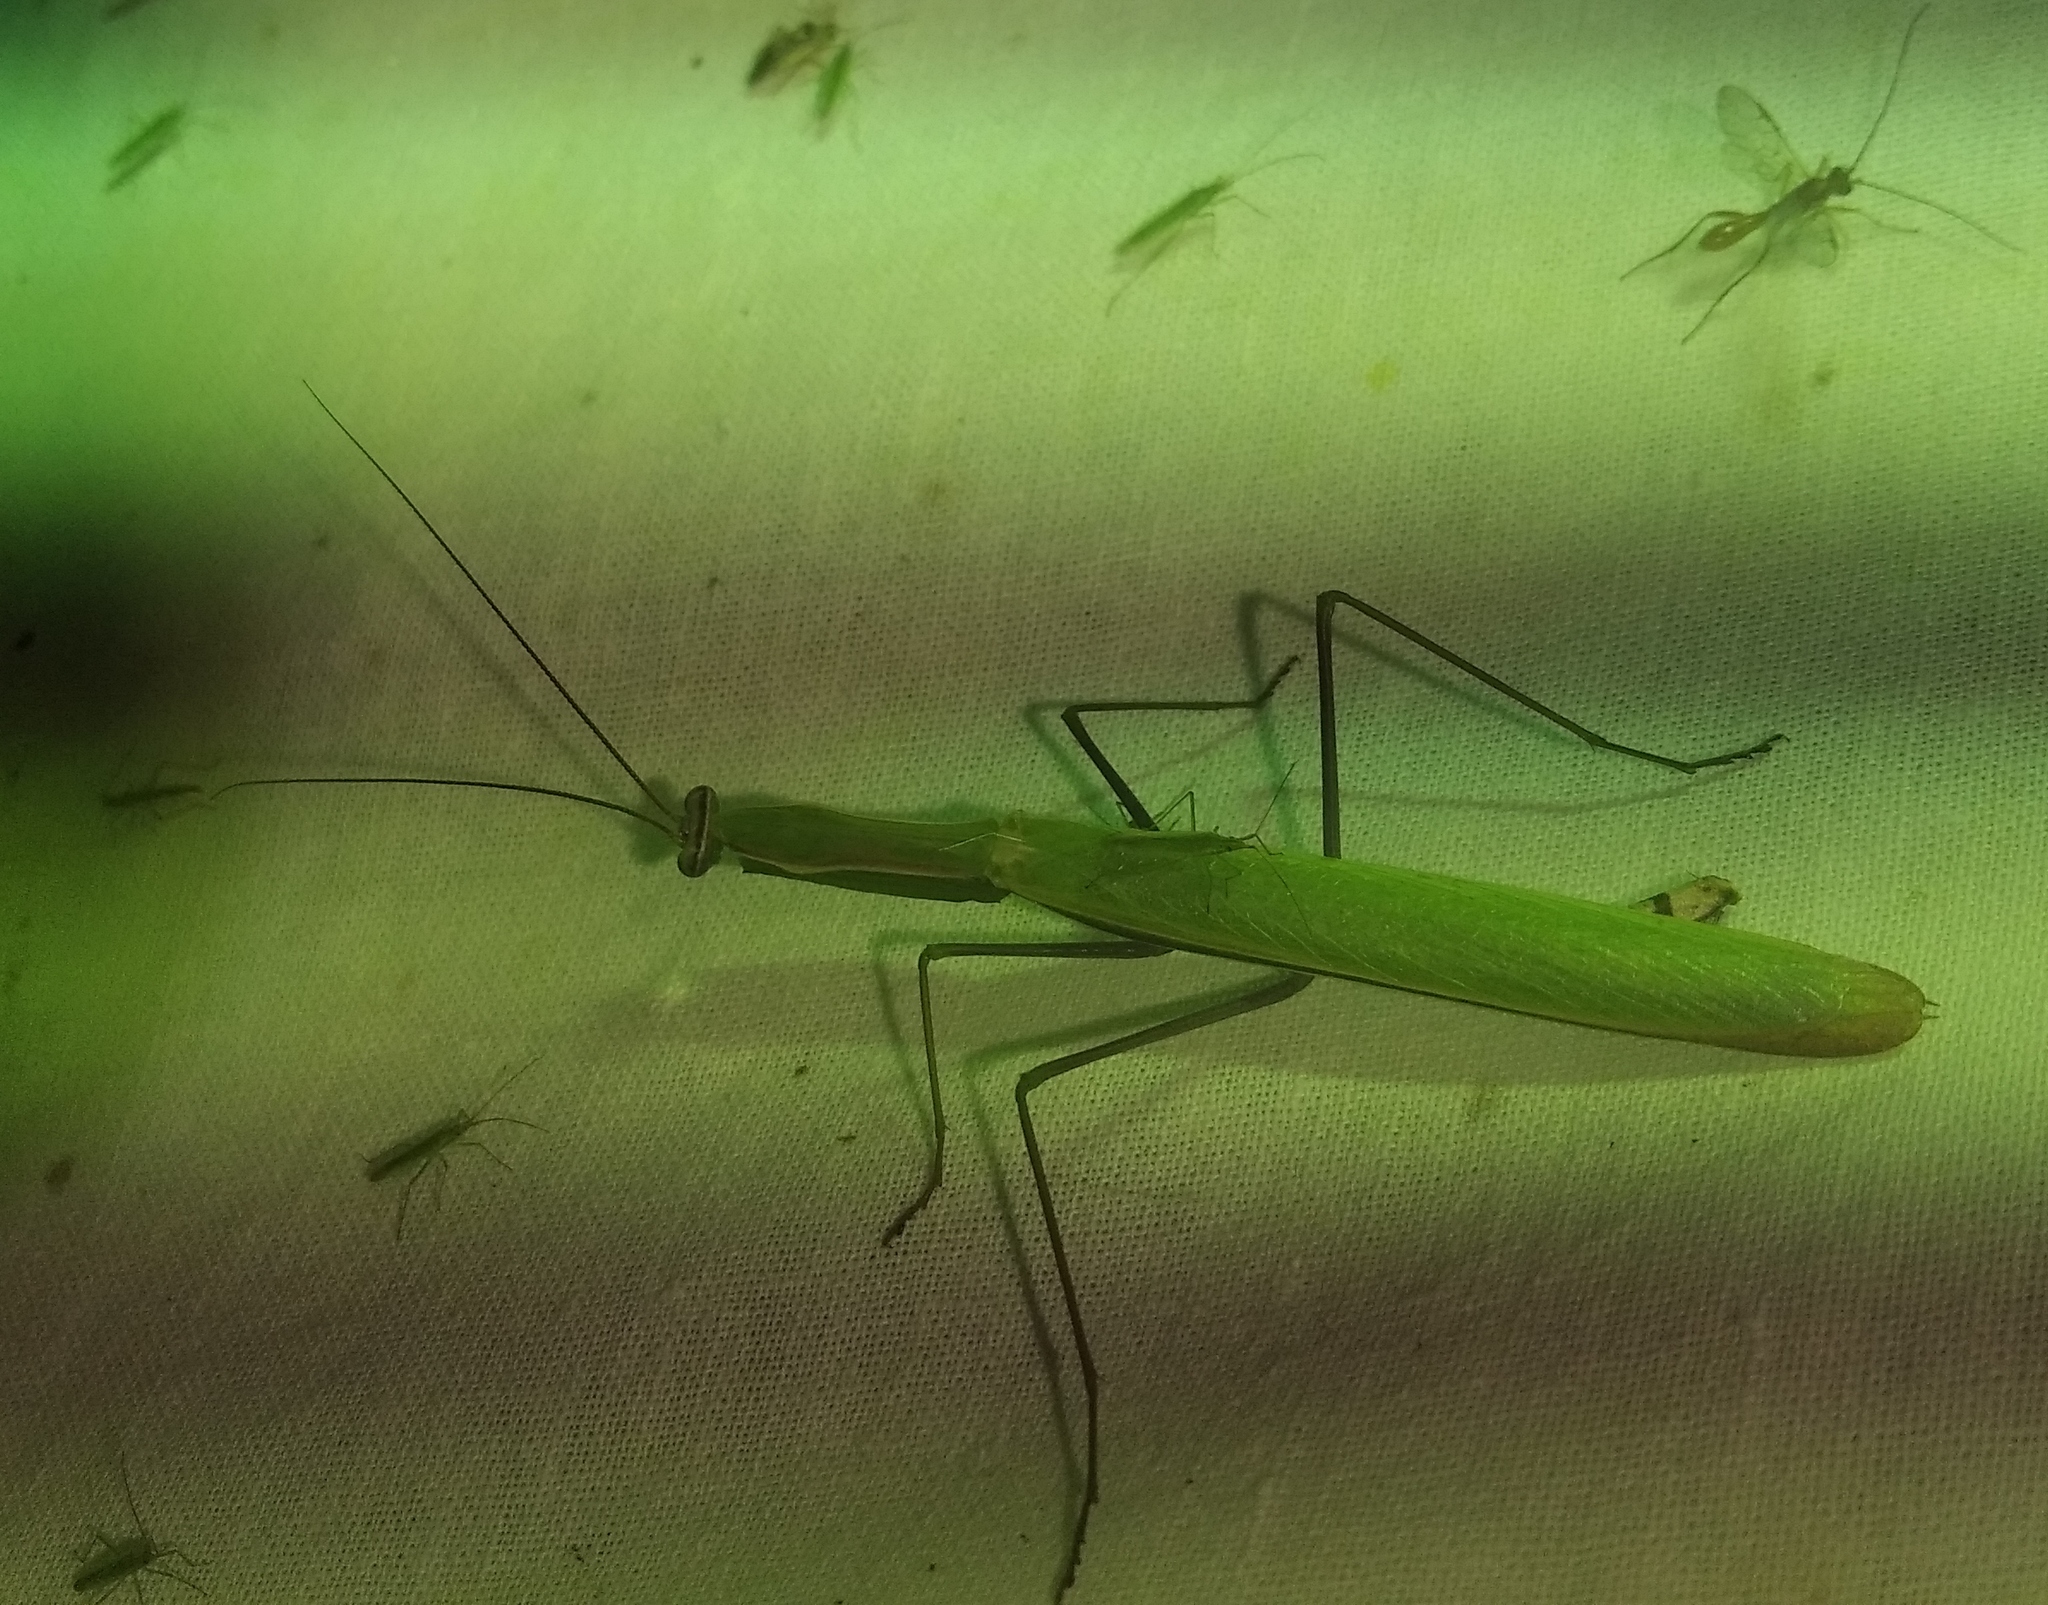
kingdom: Animalia
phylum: Arthropoda
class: Insecta
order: Mantodea
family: Mantidae
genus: Mantis
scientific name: Mantis religiosa
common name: Praying mantis
